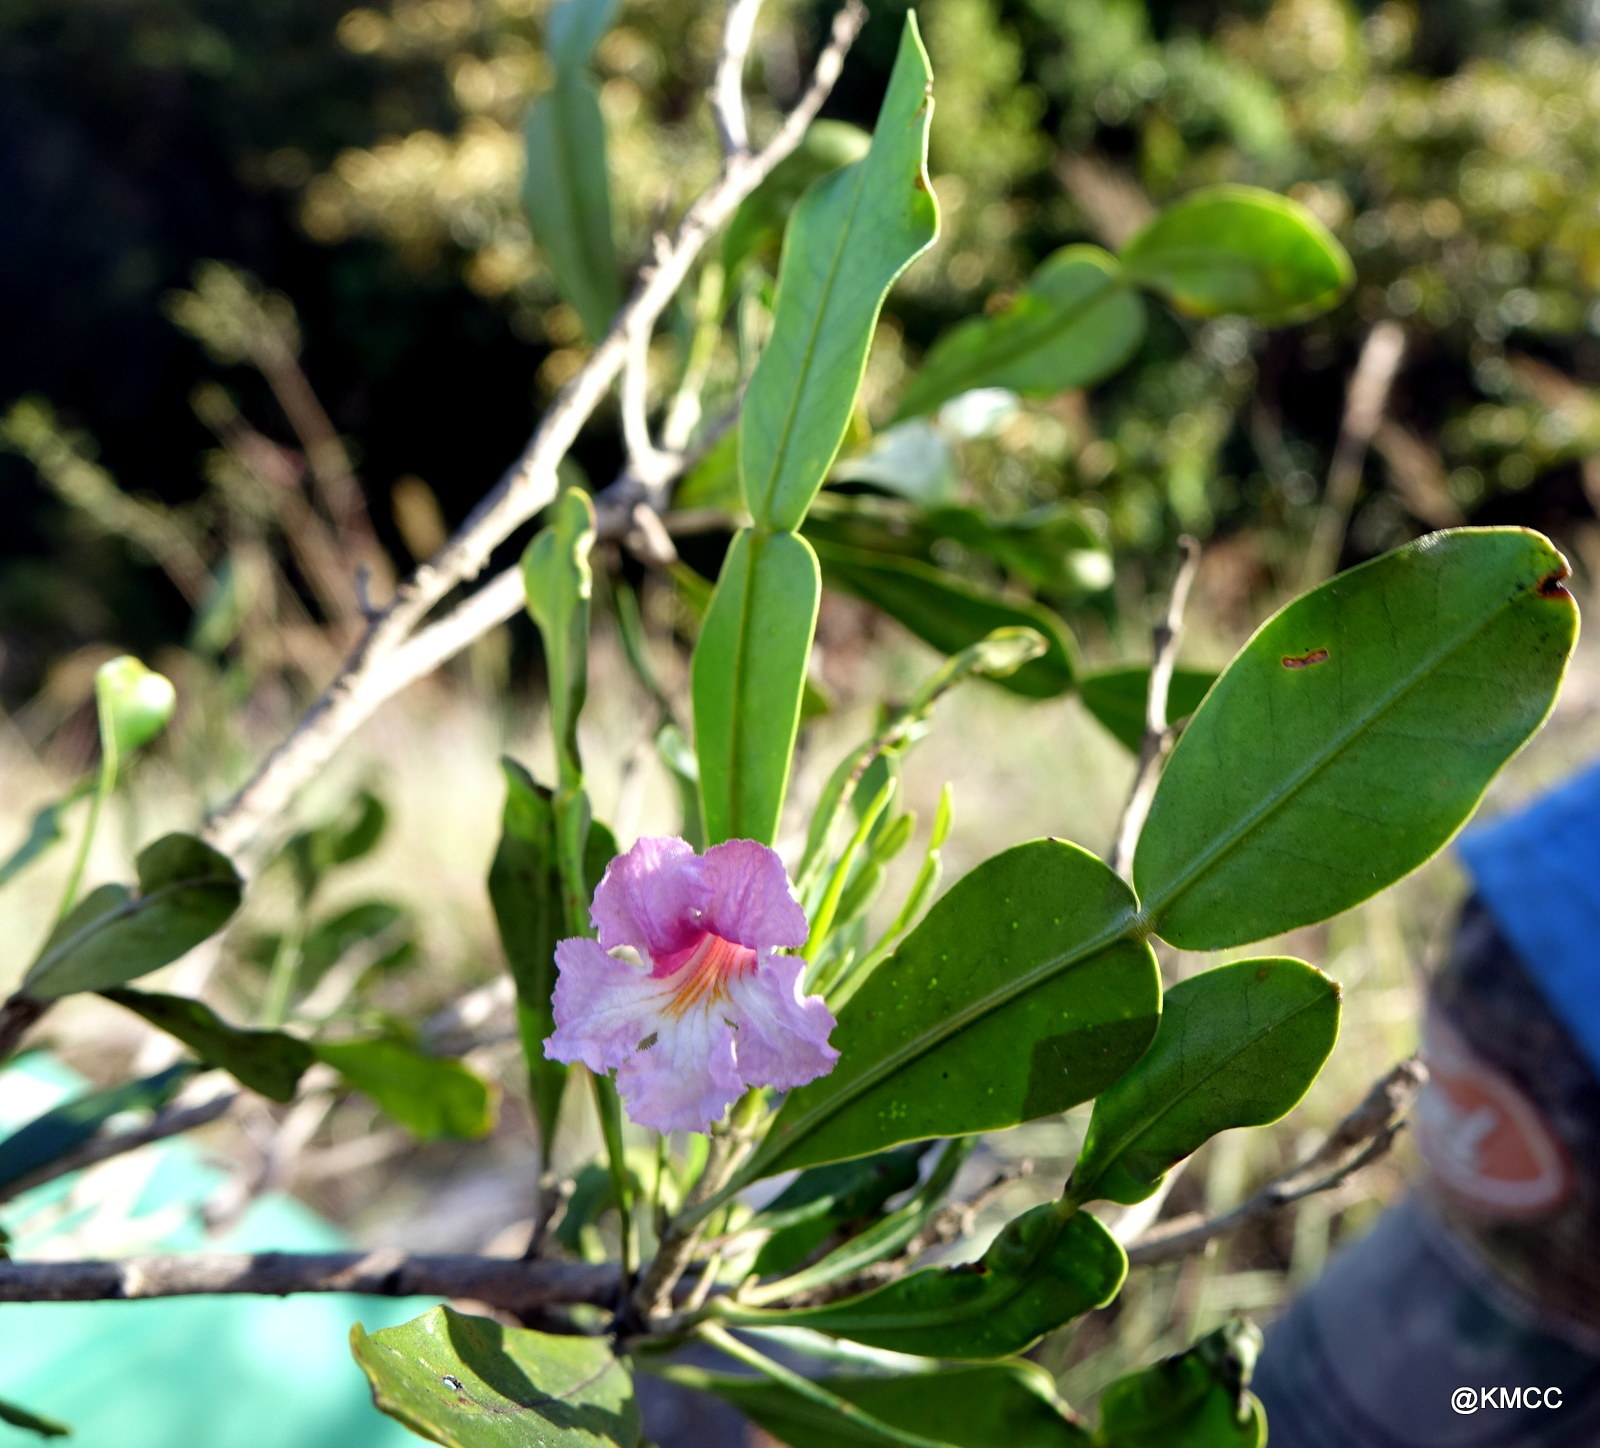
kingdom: Plantae
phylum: Tracheophyta
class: Magnoliopsida
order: Lamiales
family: Bignoniaceae
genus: Phyllarthron
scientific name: Phyllarthron bojeranum
